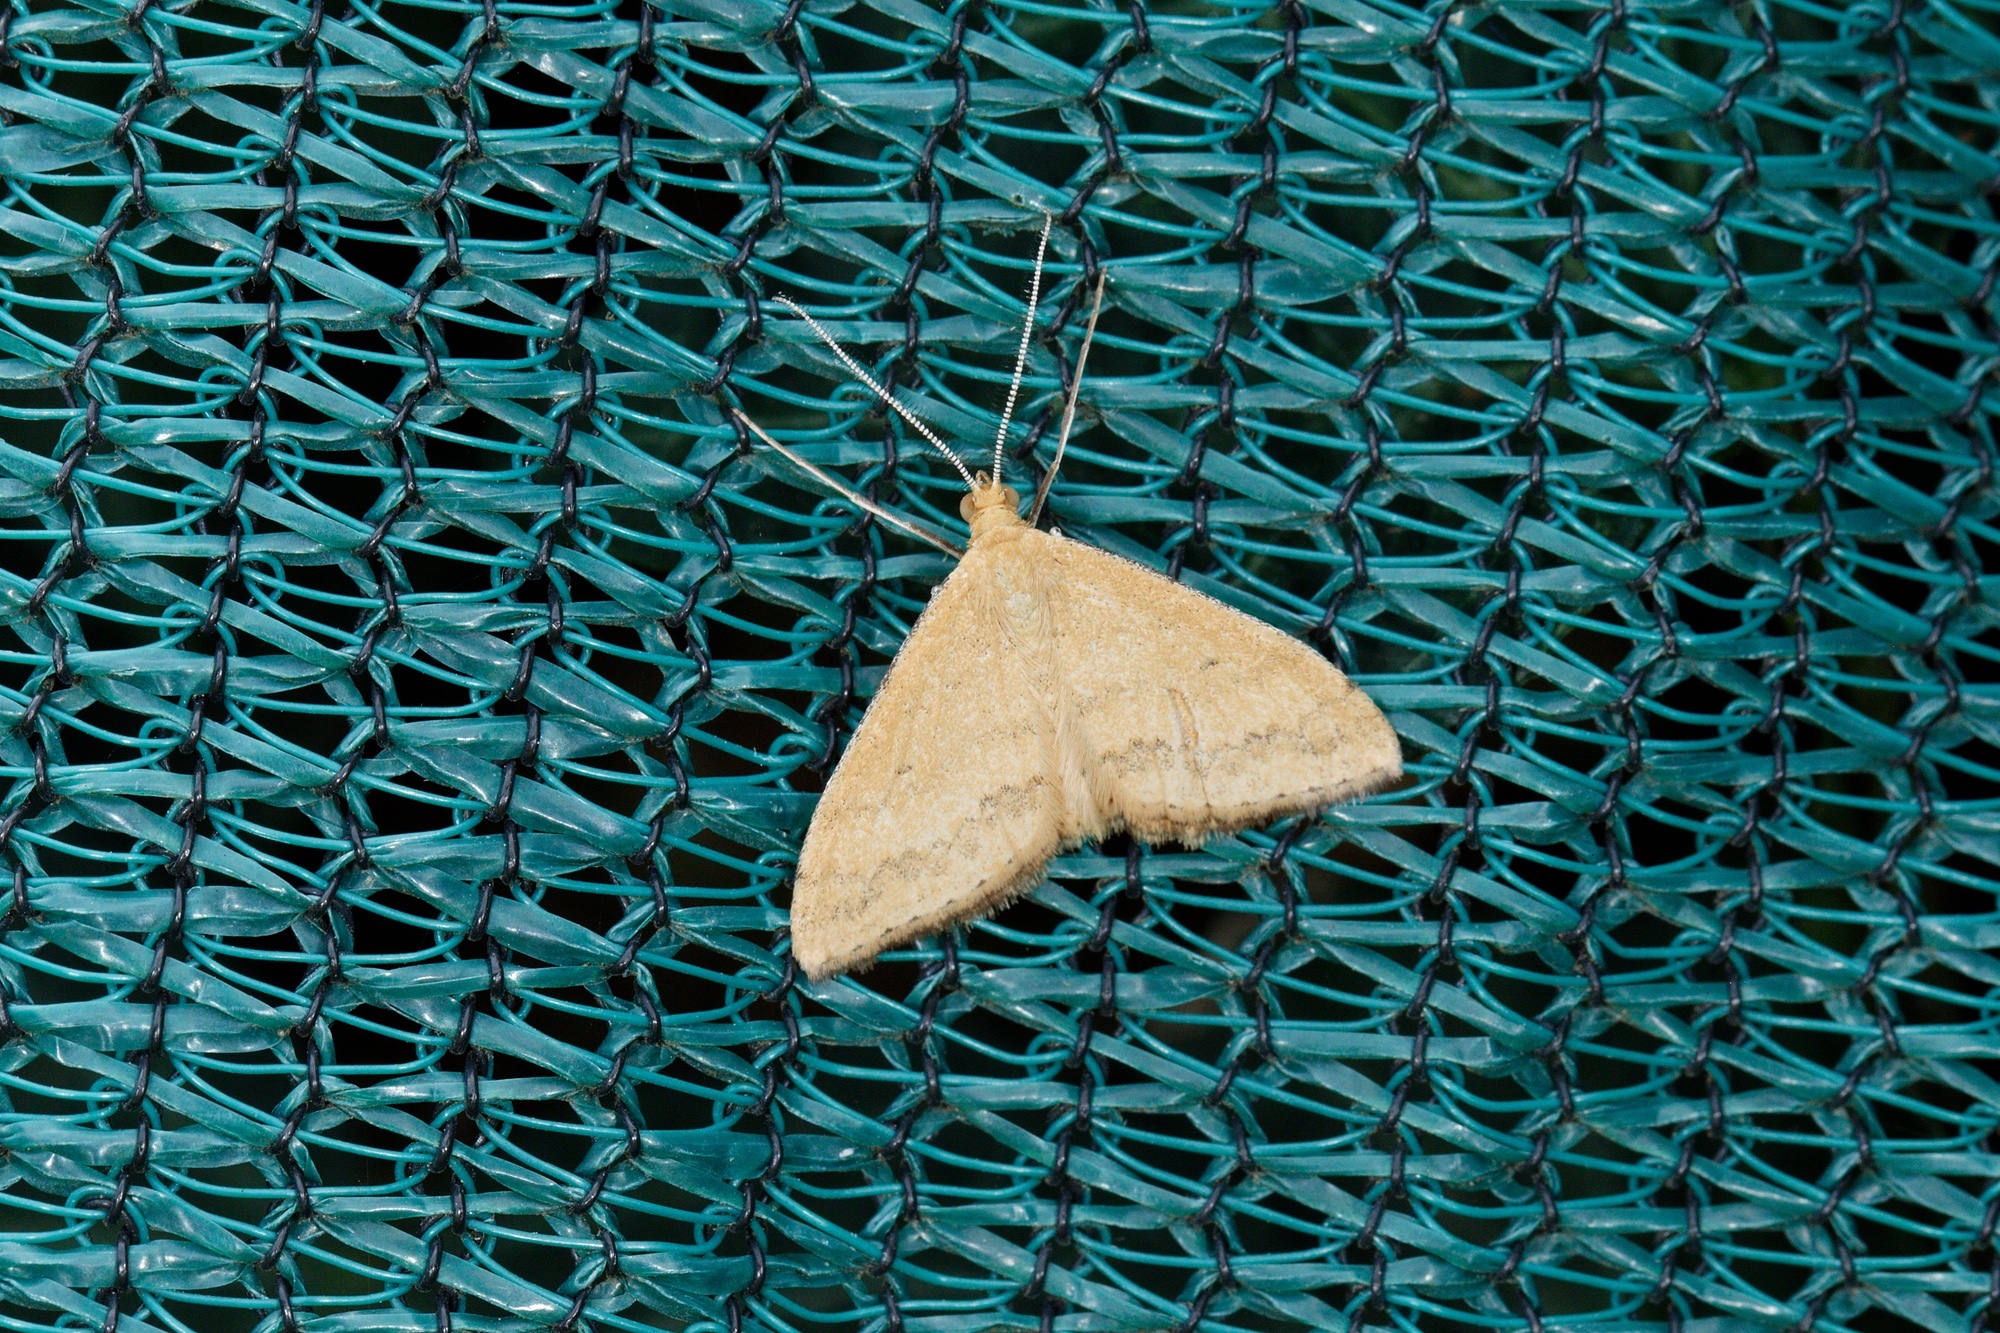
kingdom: Animalia
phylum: Arthropoda
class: Insecta
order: Lepidoptera
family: Geometridae
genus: Scopula
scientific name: Scopula rubraria
